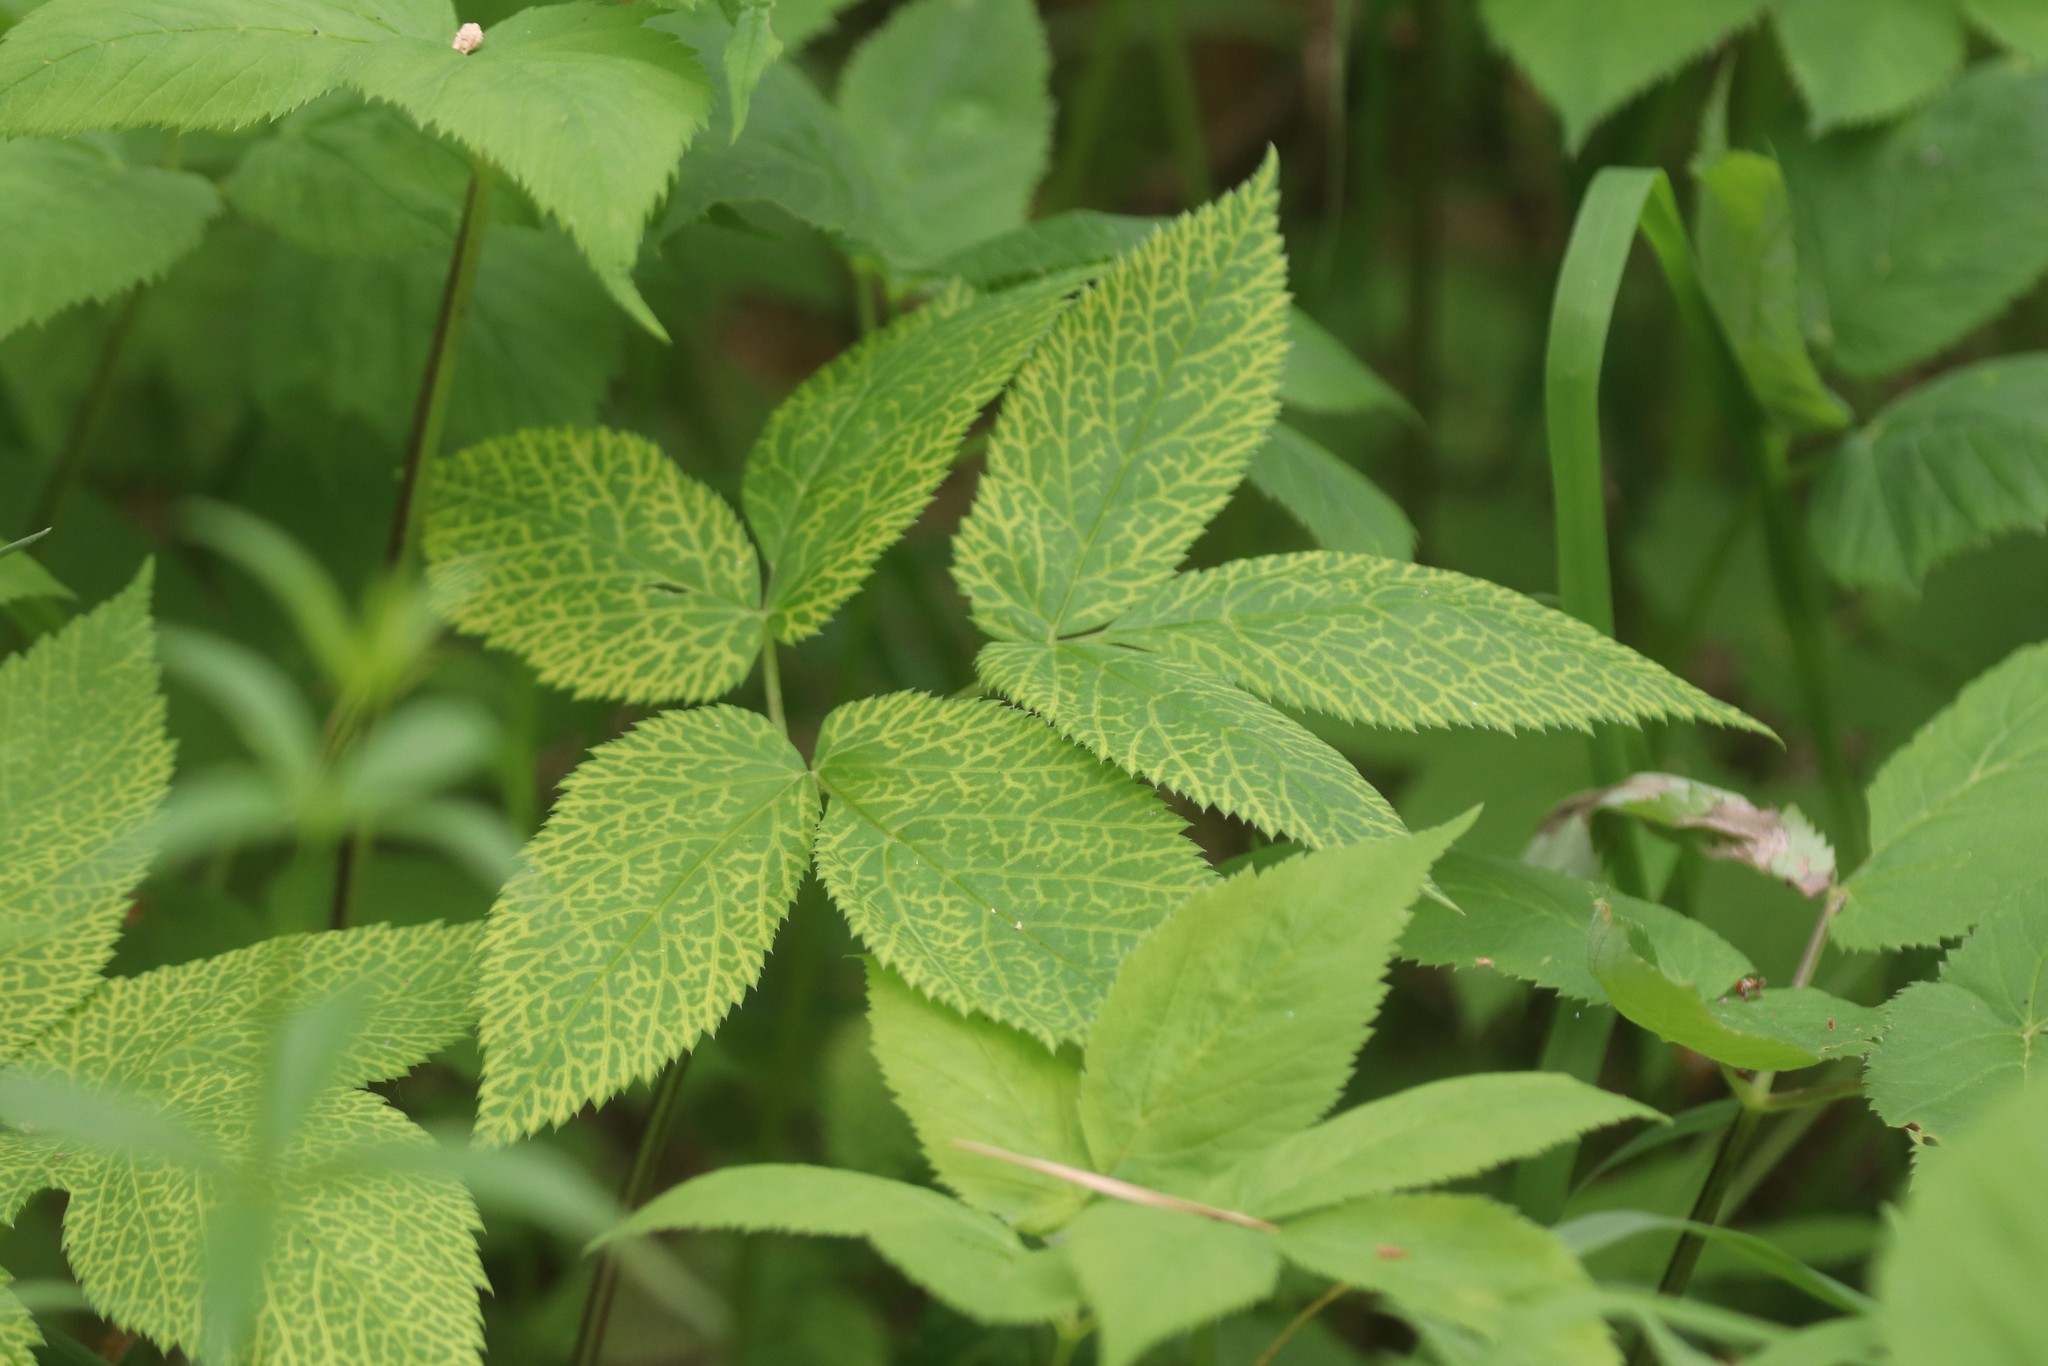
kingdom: Plantae
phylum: Tracheophyta
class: Magnoliopsida
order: Apiales
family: Apiaceae
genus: Aegopodium
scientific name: Aegopodium podagraria
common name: Ground-elder
